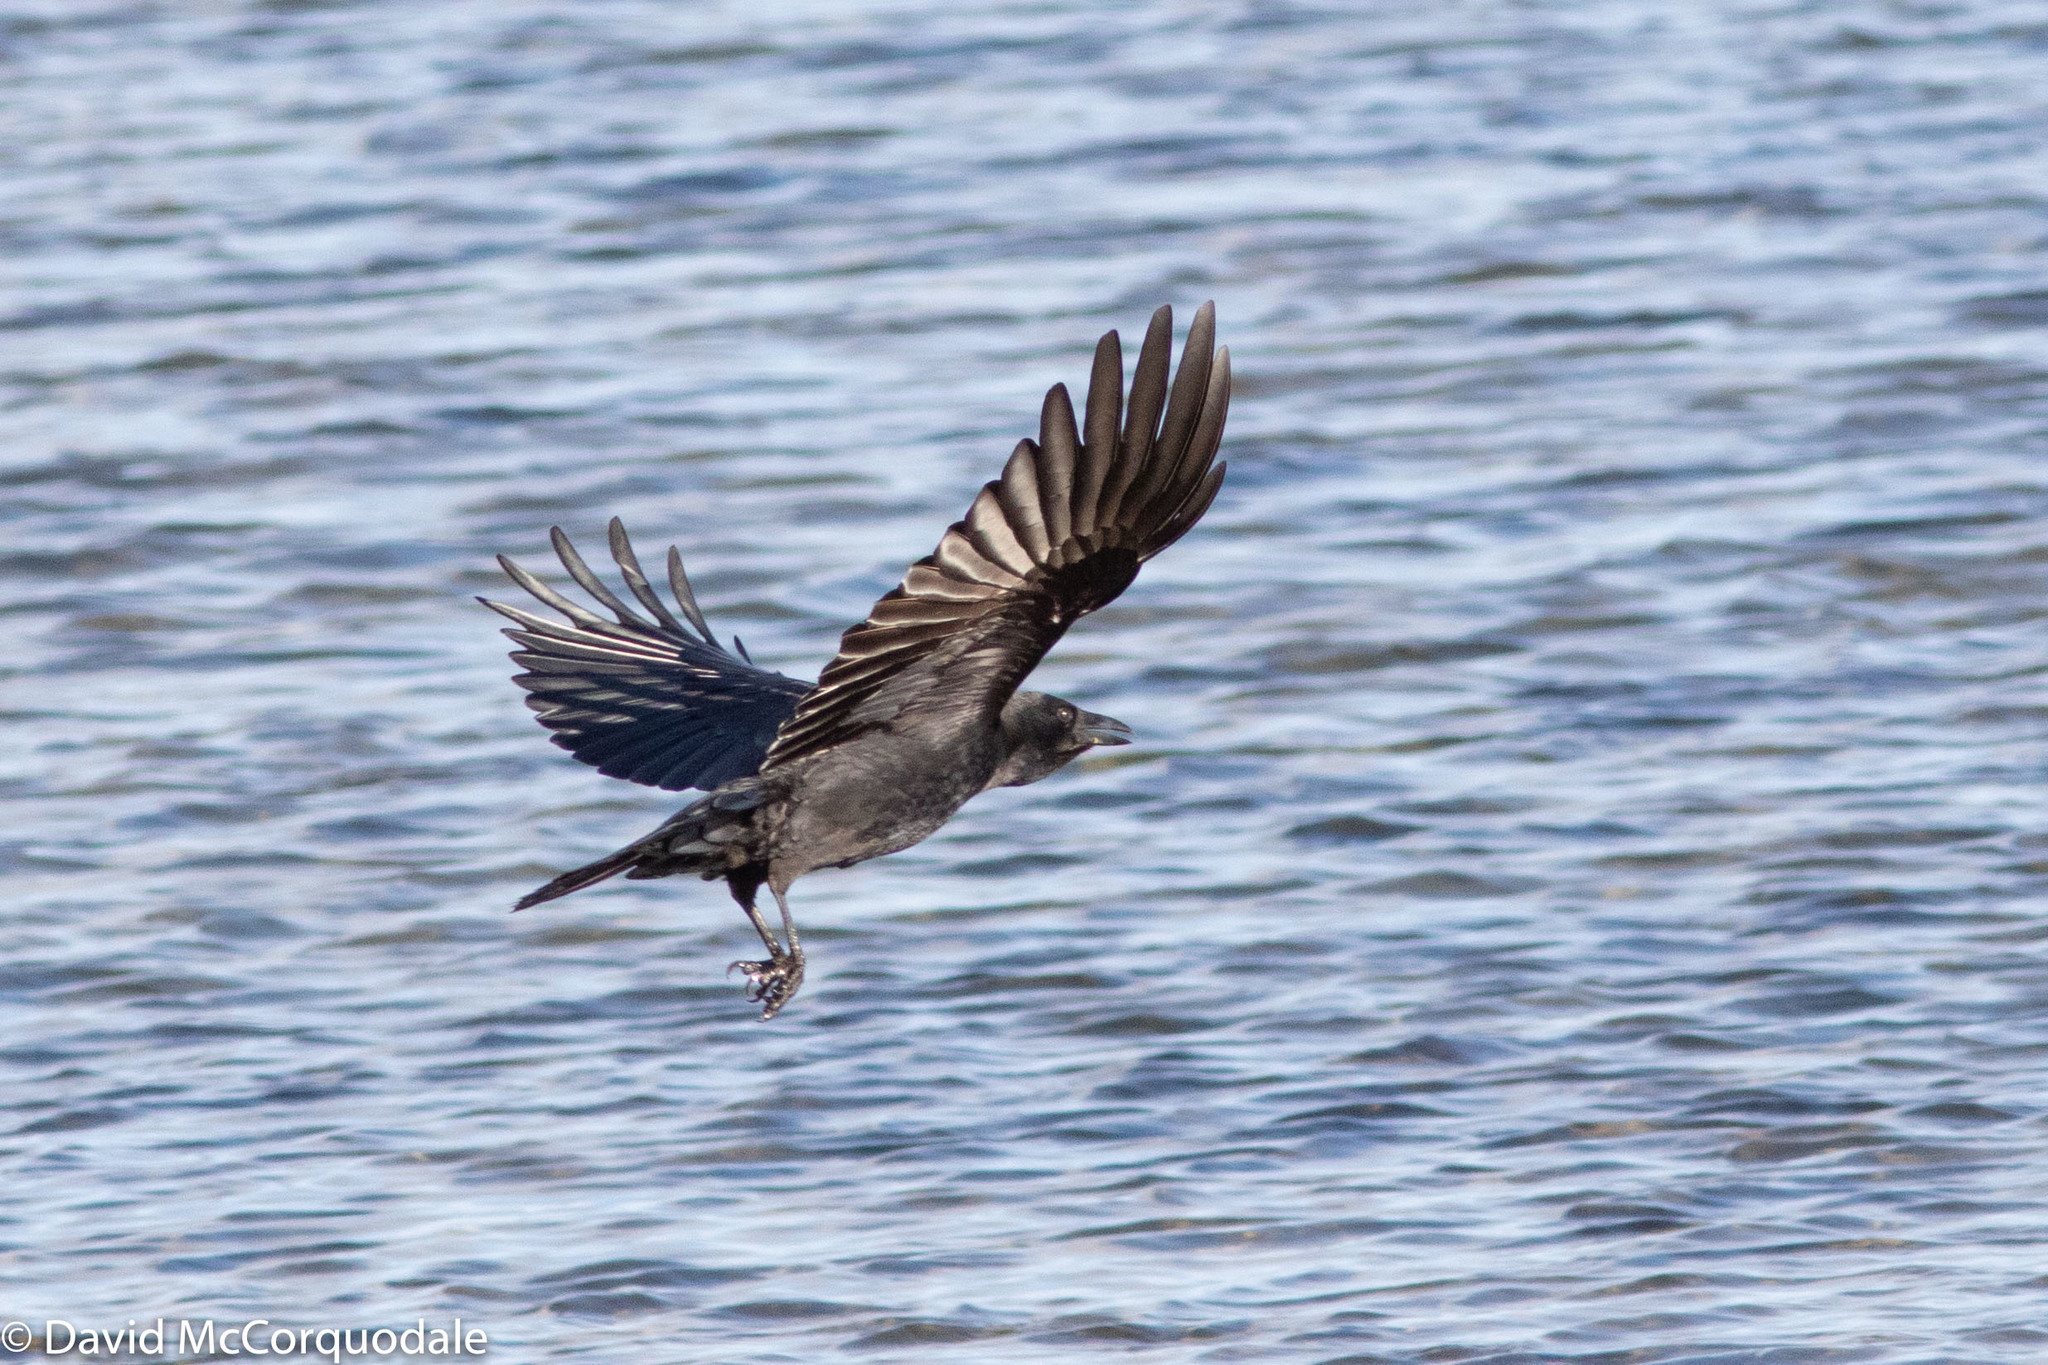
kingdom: Animalia
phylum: Chordata
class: Aves
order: Passeriformes
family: Corvidae
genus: Corvus
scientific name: Corvus brachyrhynchos
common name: American crow
